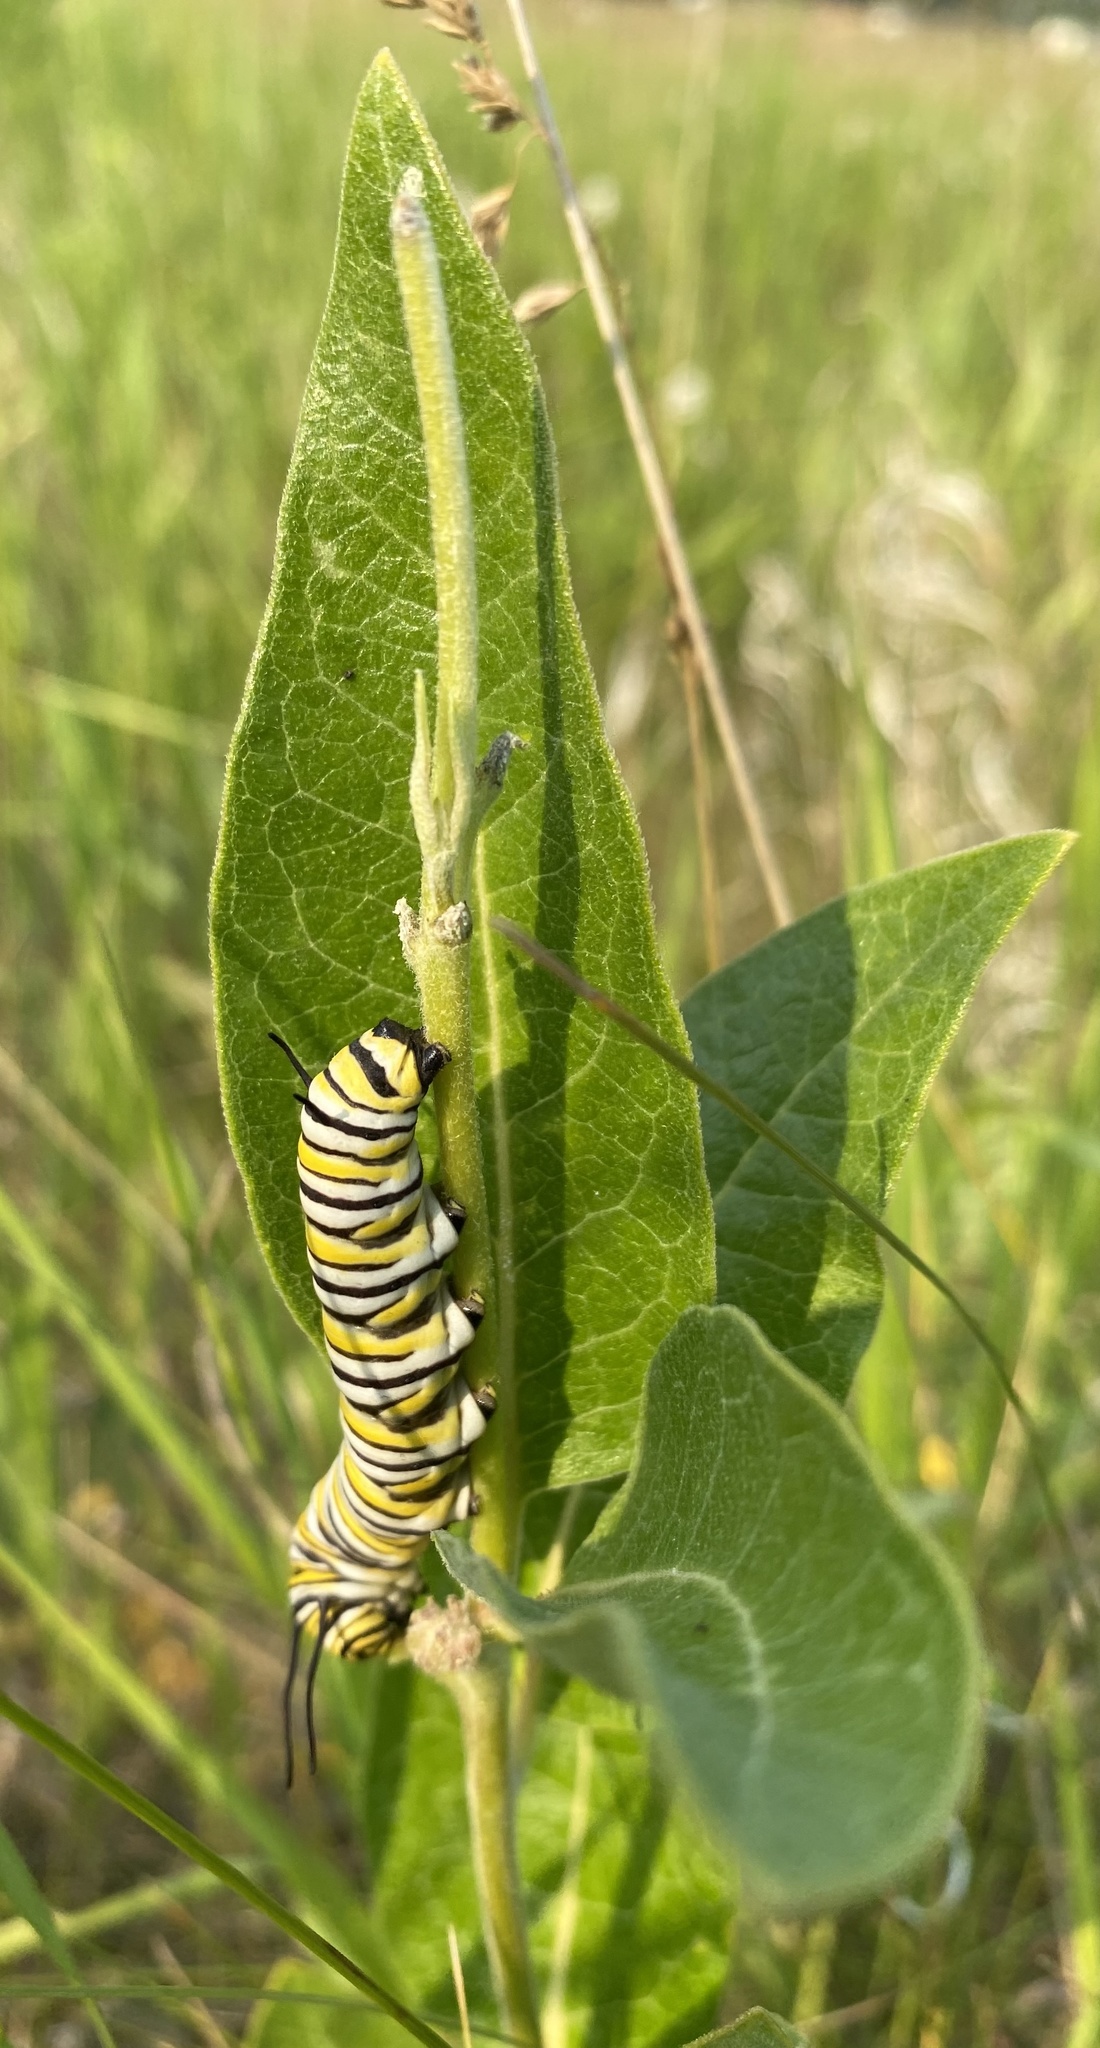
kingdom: Animalia
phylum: Arthropoda
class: Insecta
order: Lepidoptera
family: Nymphalidae
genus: Danaus
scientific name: Danaus plexippus
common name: Monarch
